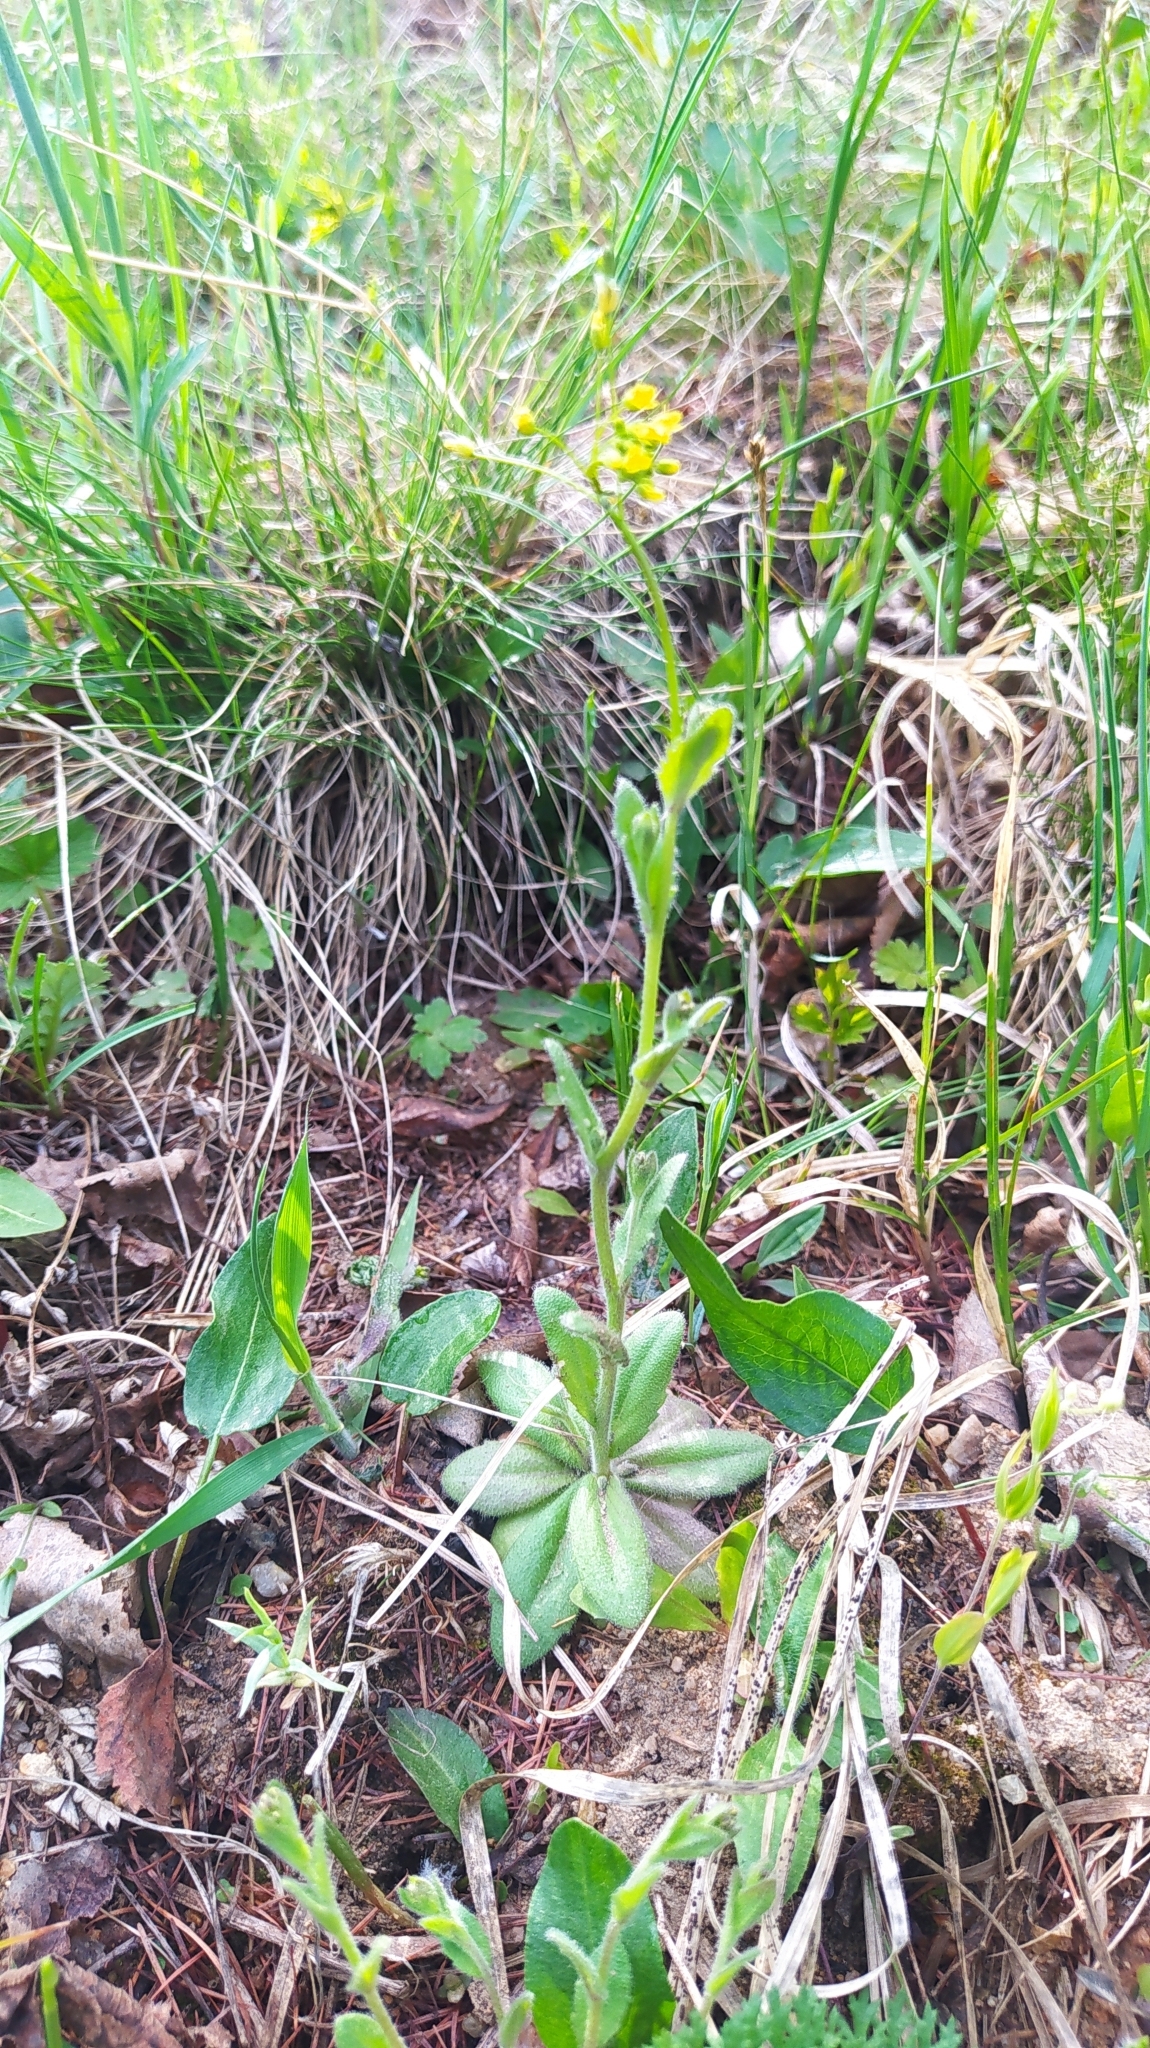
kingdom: Plantae
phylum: Tracheophyta
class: Magnoliopsida
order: Brassicales
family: Brassicaceae
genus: Draba
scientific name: Draba nemorosa
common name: Wood whitlow-grass
